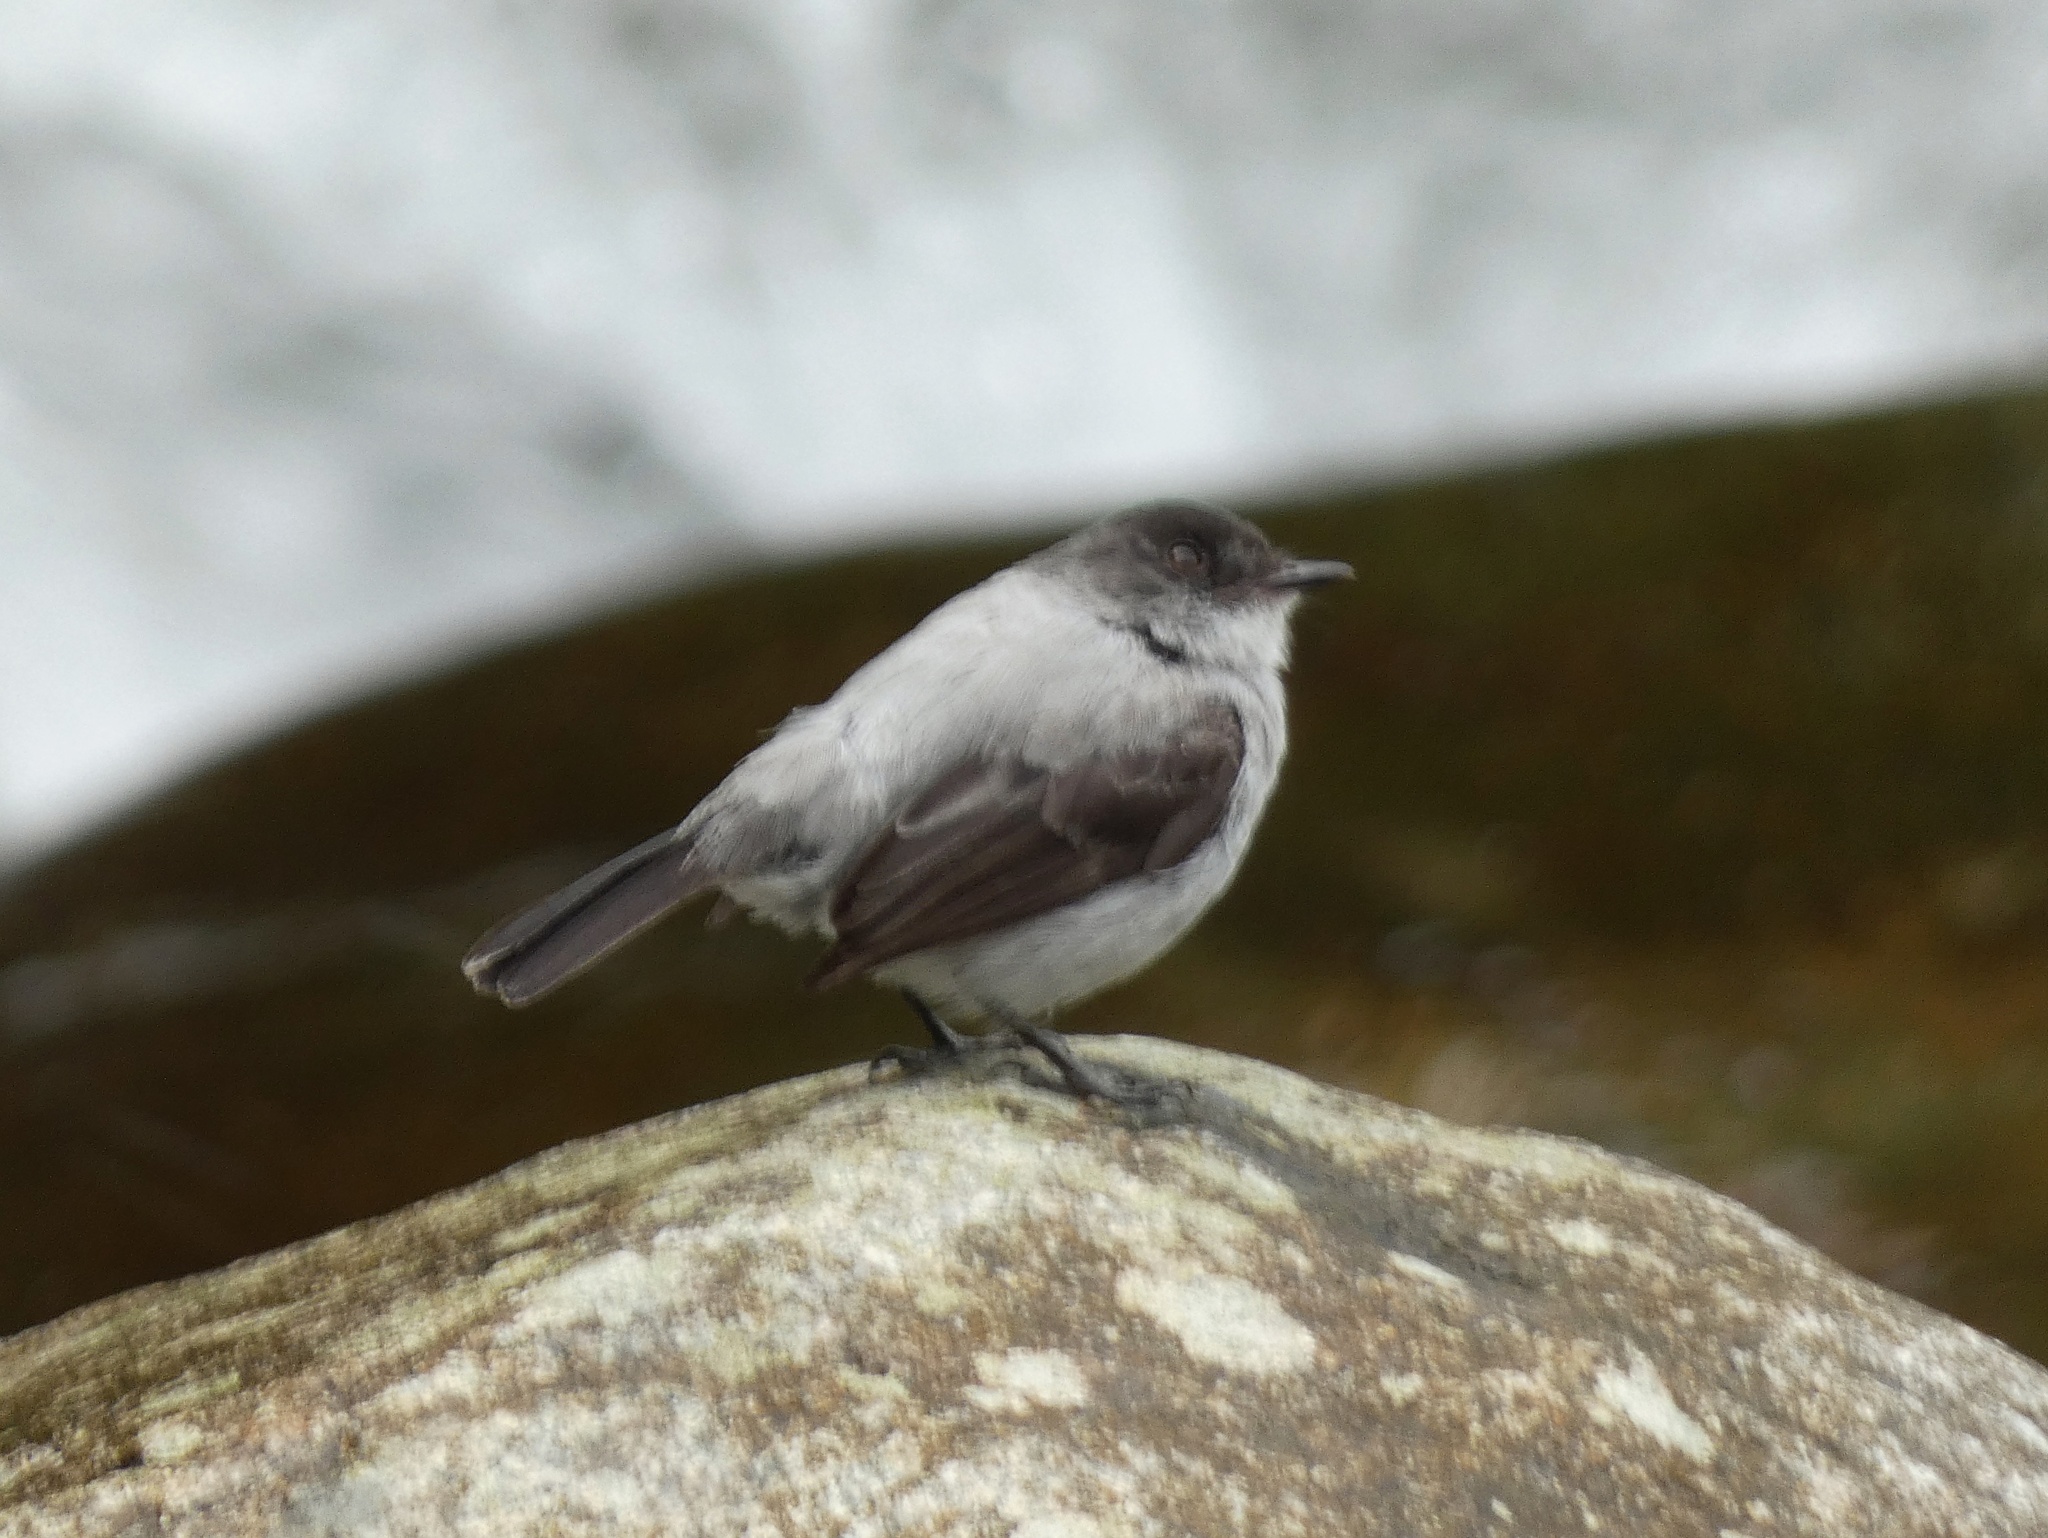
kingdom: Animalia
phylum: Chordata
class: Aves
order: Passeriformes
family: Tyrannidae
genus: Serpophaga
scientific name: Serpophaga cinerea
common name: Torrent tyrannulet
